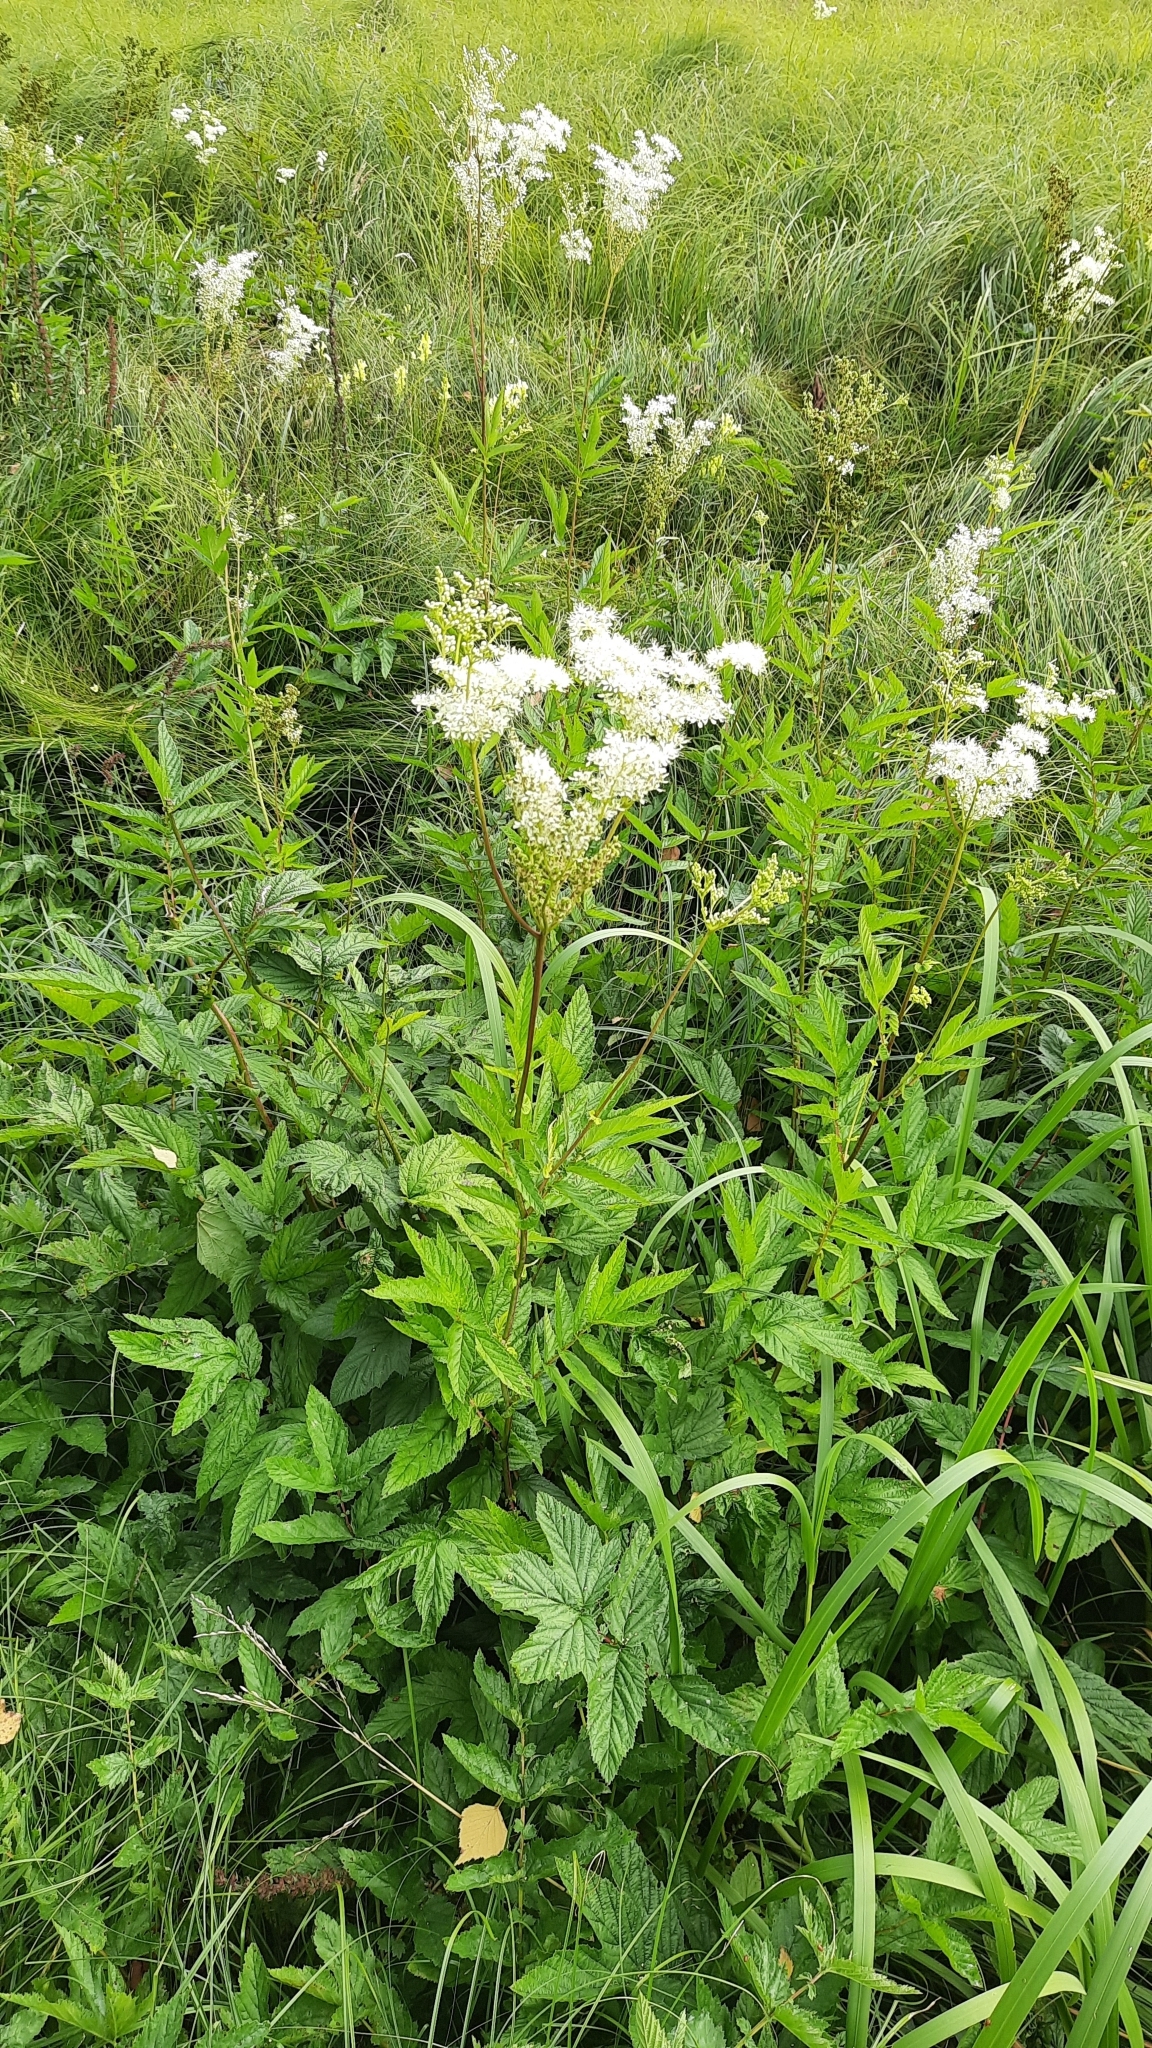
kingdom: Plantae
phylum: Tracheophyta
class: Magnoliopsida
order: Rosales
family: Rosaceae
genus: Filipendula
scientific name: Filipendula ulmaria
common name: Meadowsweet
